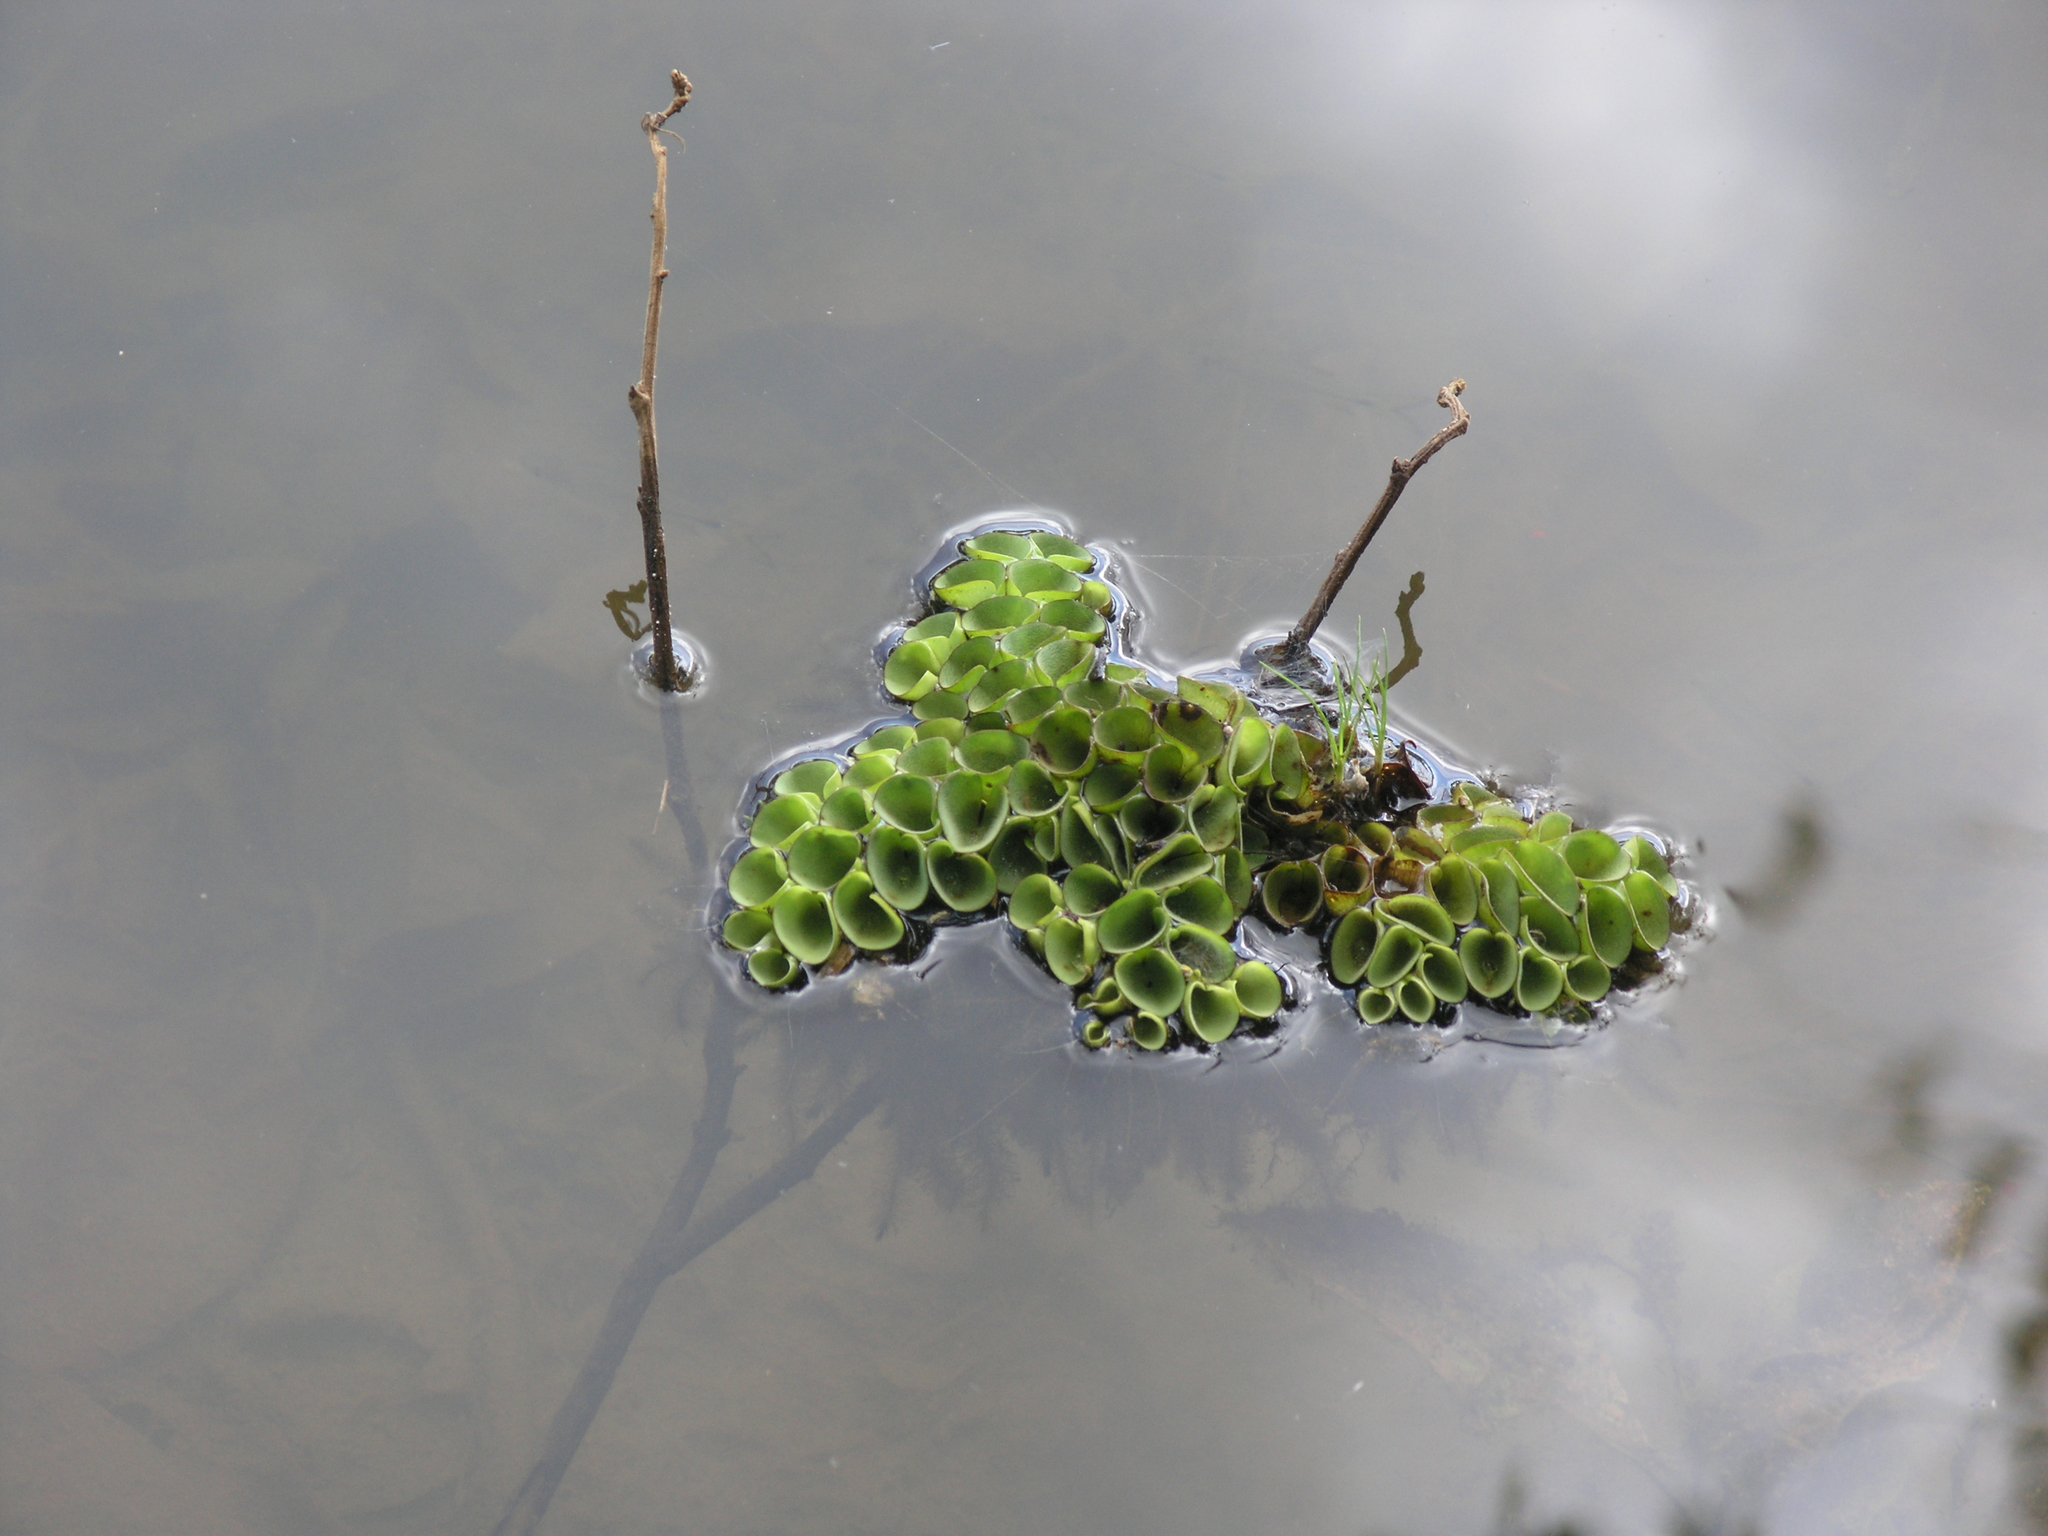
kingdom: Plantae
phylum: Tracheophyta
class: Polypodiopsida
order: Salviniales
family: Salviniaceae
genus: Salvinia
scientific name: Salvinia cucullata
